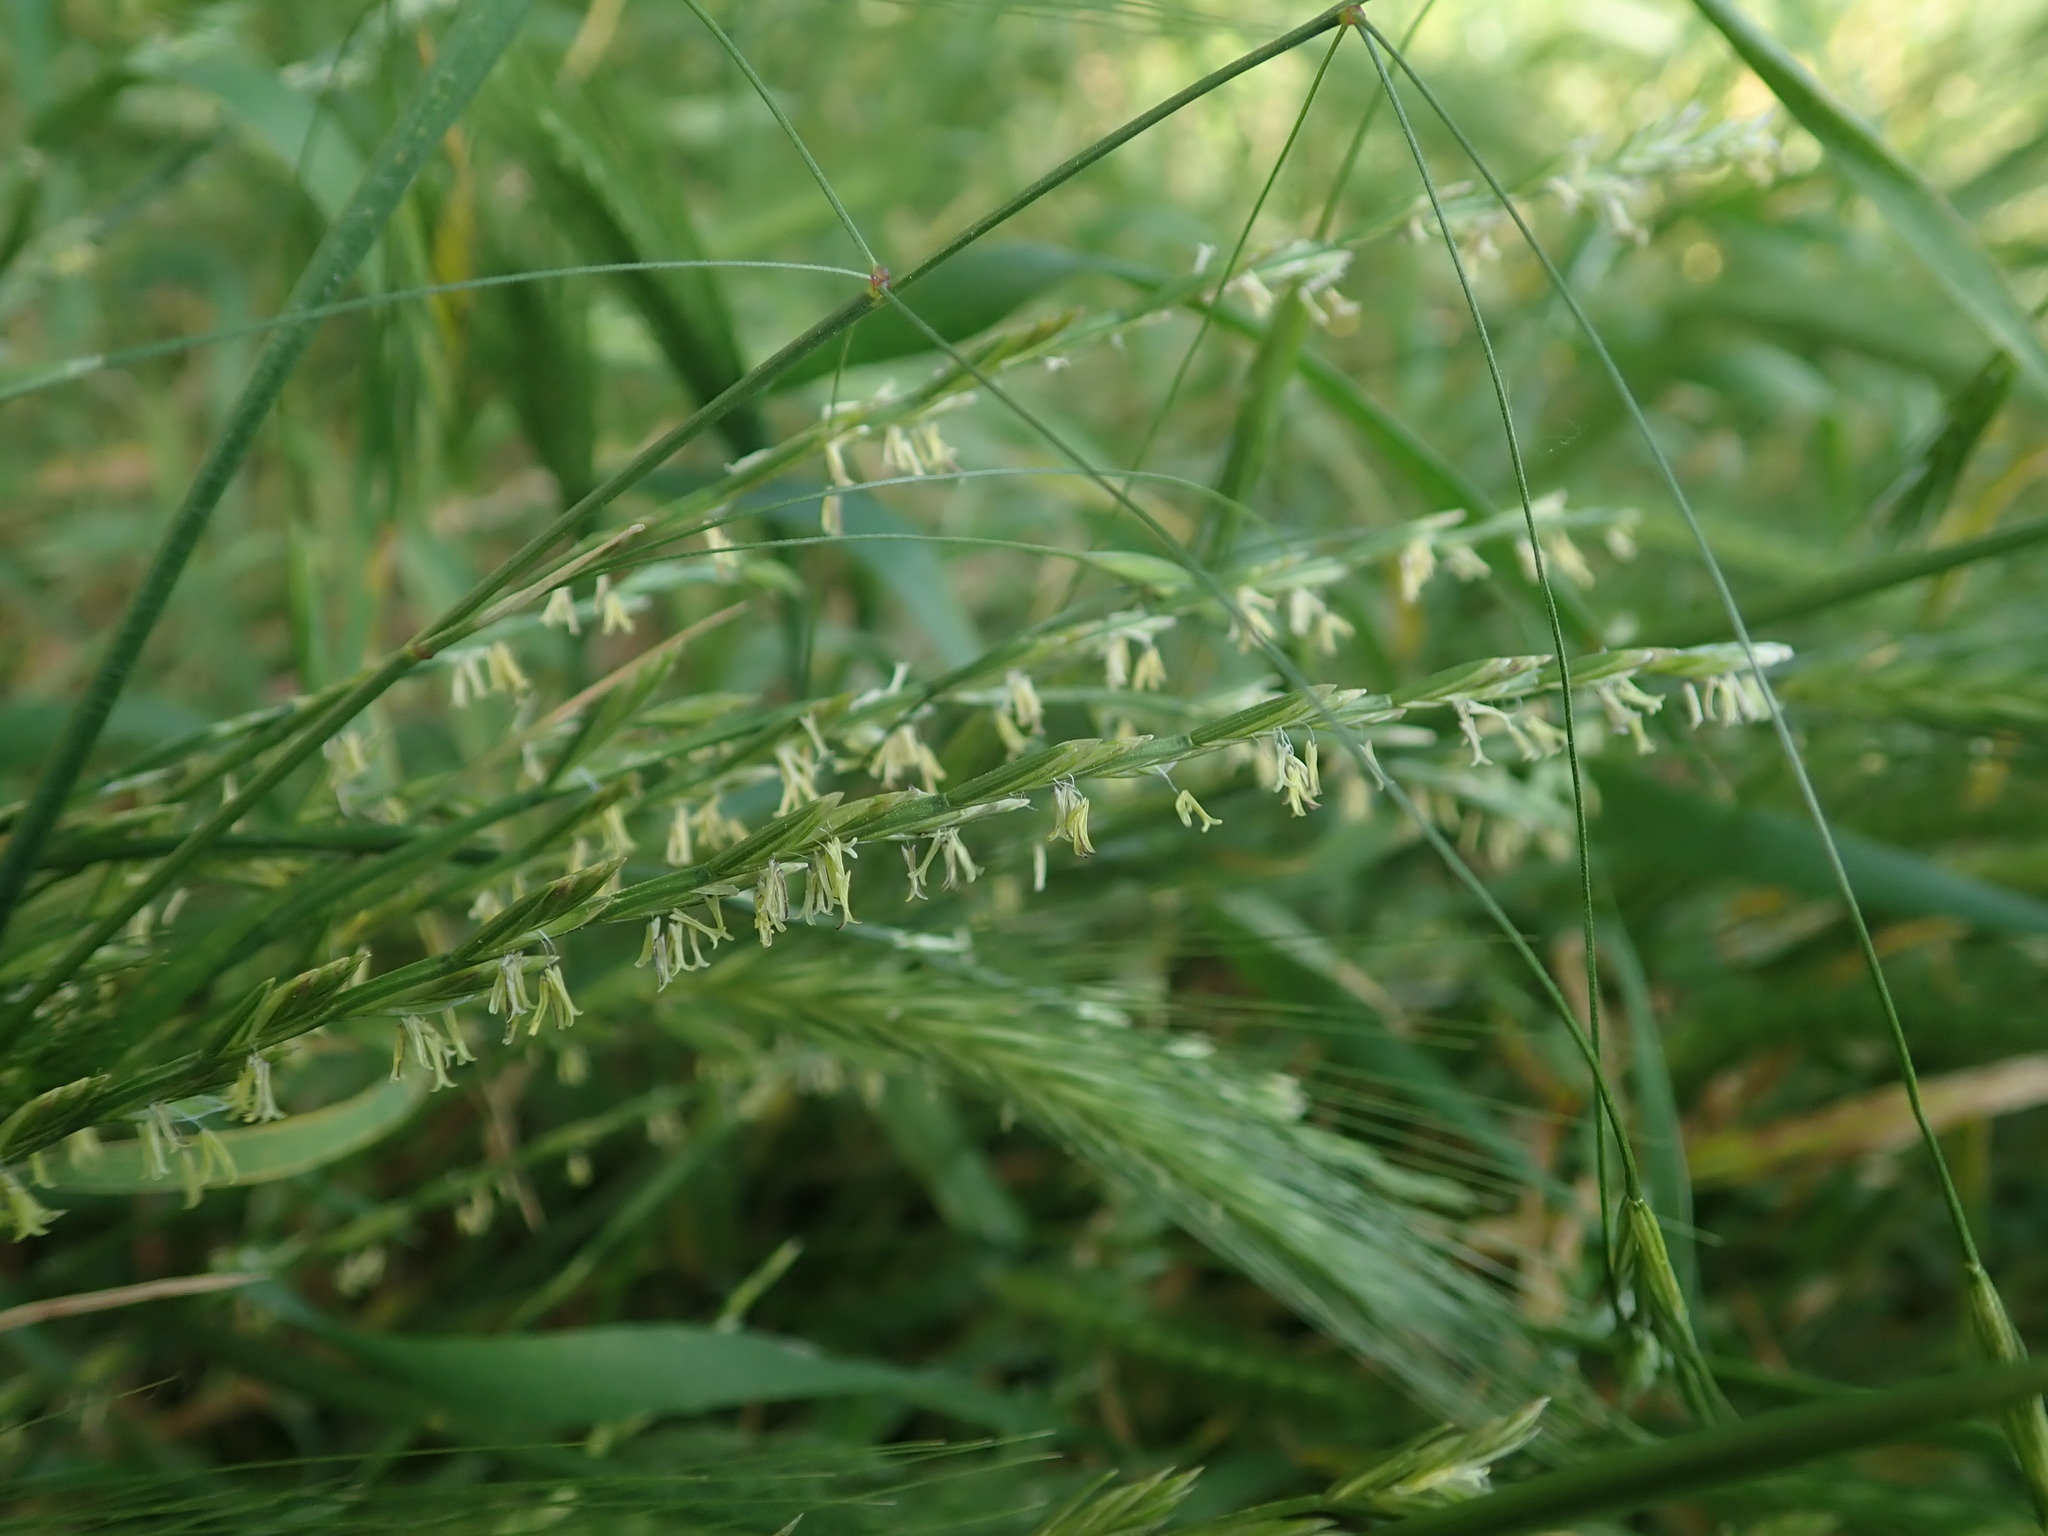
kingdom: Plantae
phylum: Tracheophyta
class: Liliopsida
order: Poales
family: Poaceae
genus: Lolium
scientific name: Lolium perenne
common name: Perennial ryegrass
